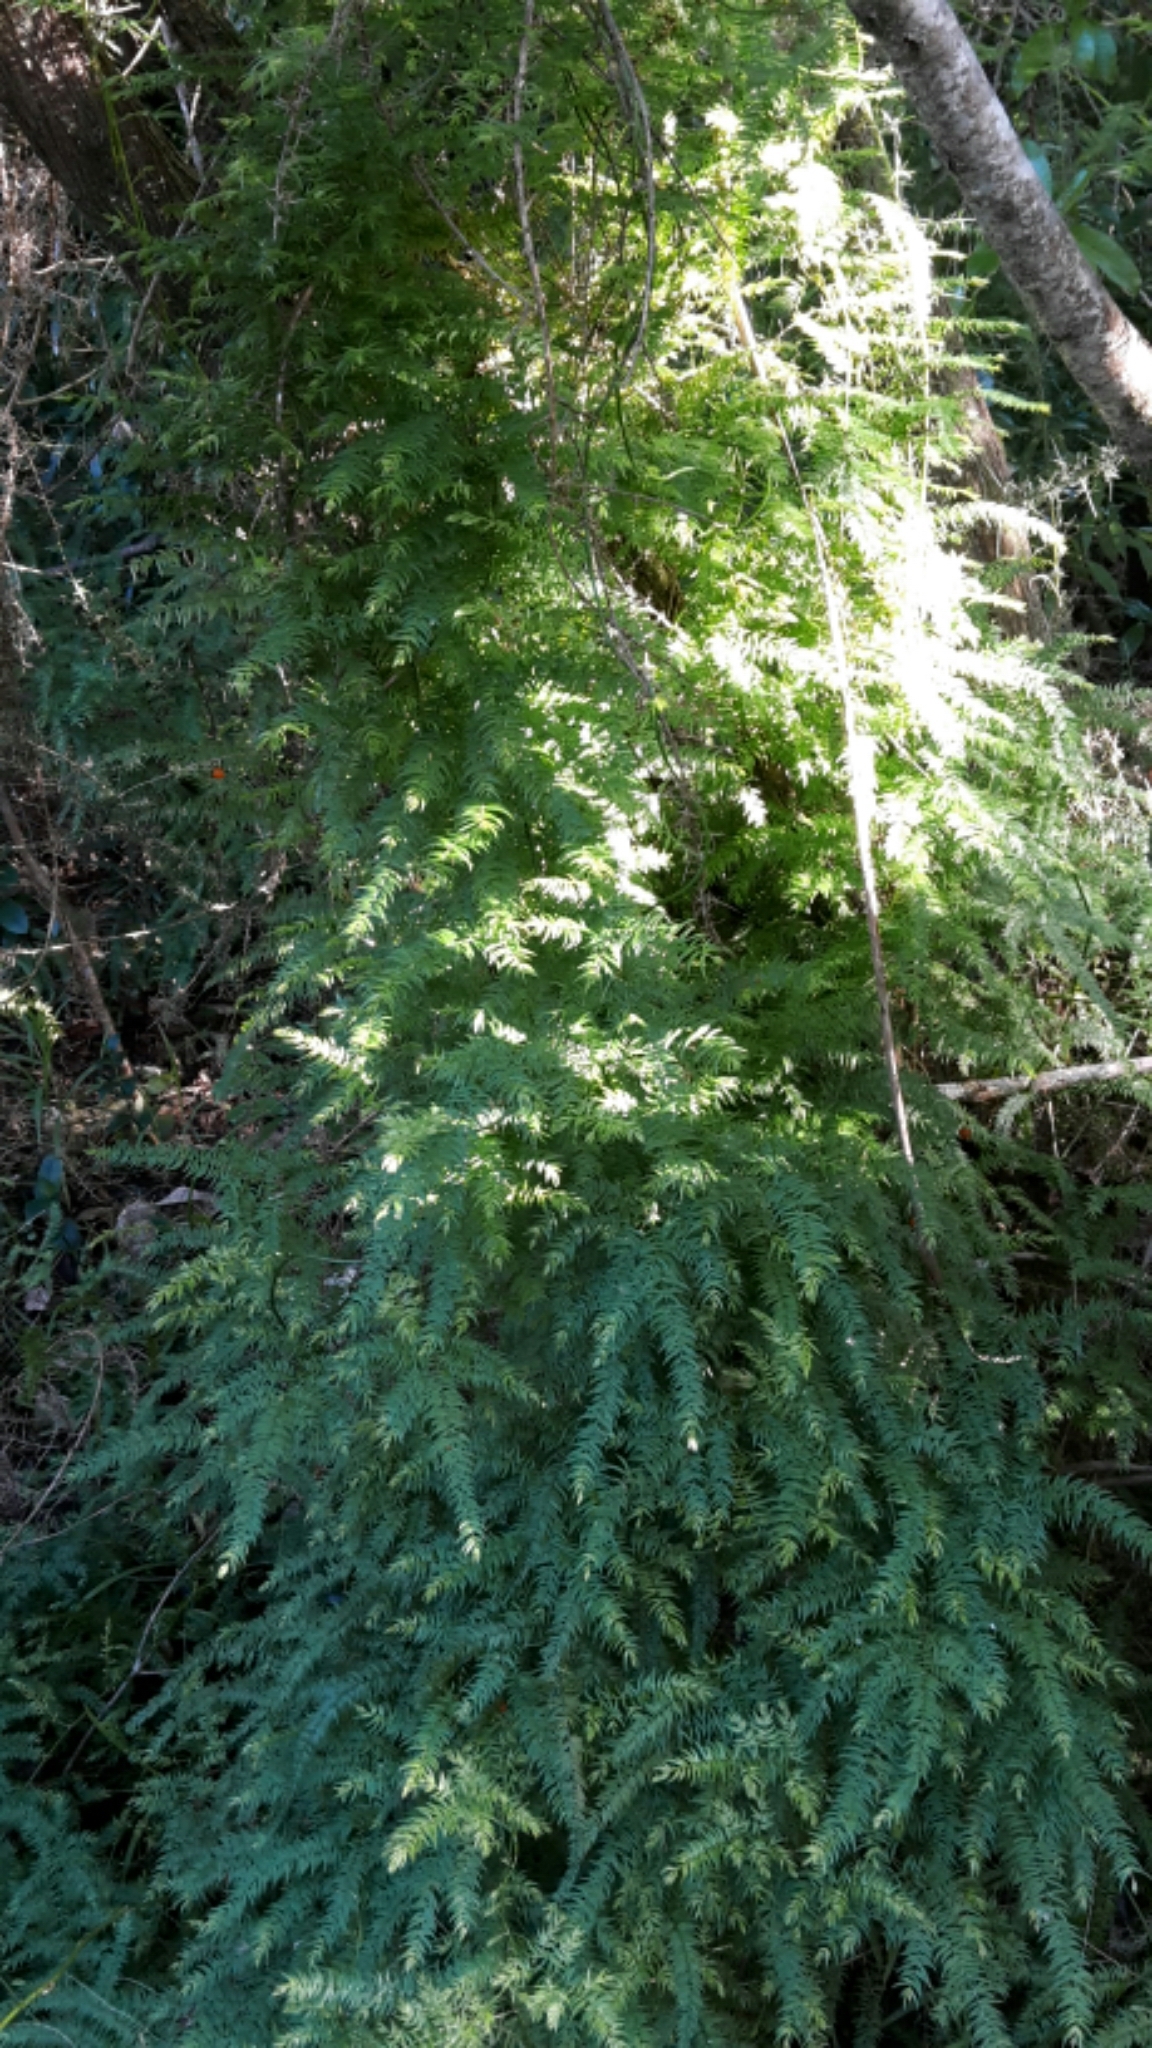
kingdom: Plantae
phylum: Tracheophyta
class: Liliopsida
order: Asparagales
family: Asparagaceae
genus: Asparagus
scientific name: Asparagus scandens
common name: Asparagus-fern
